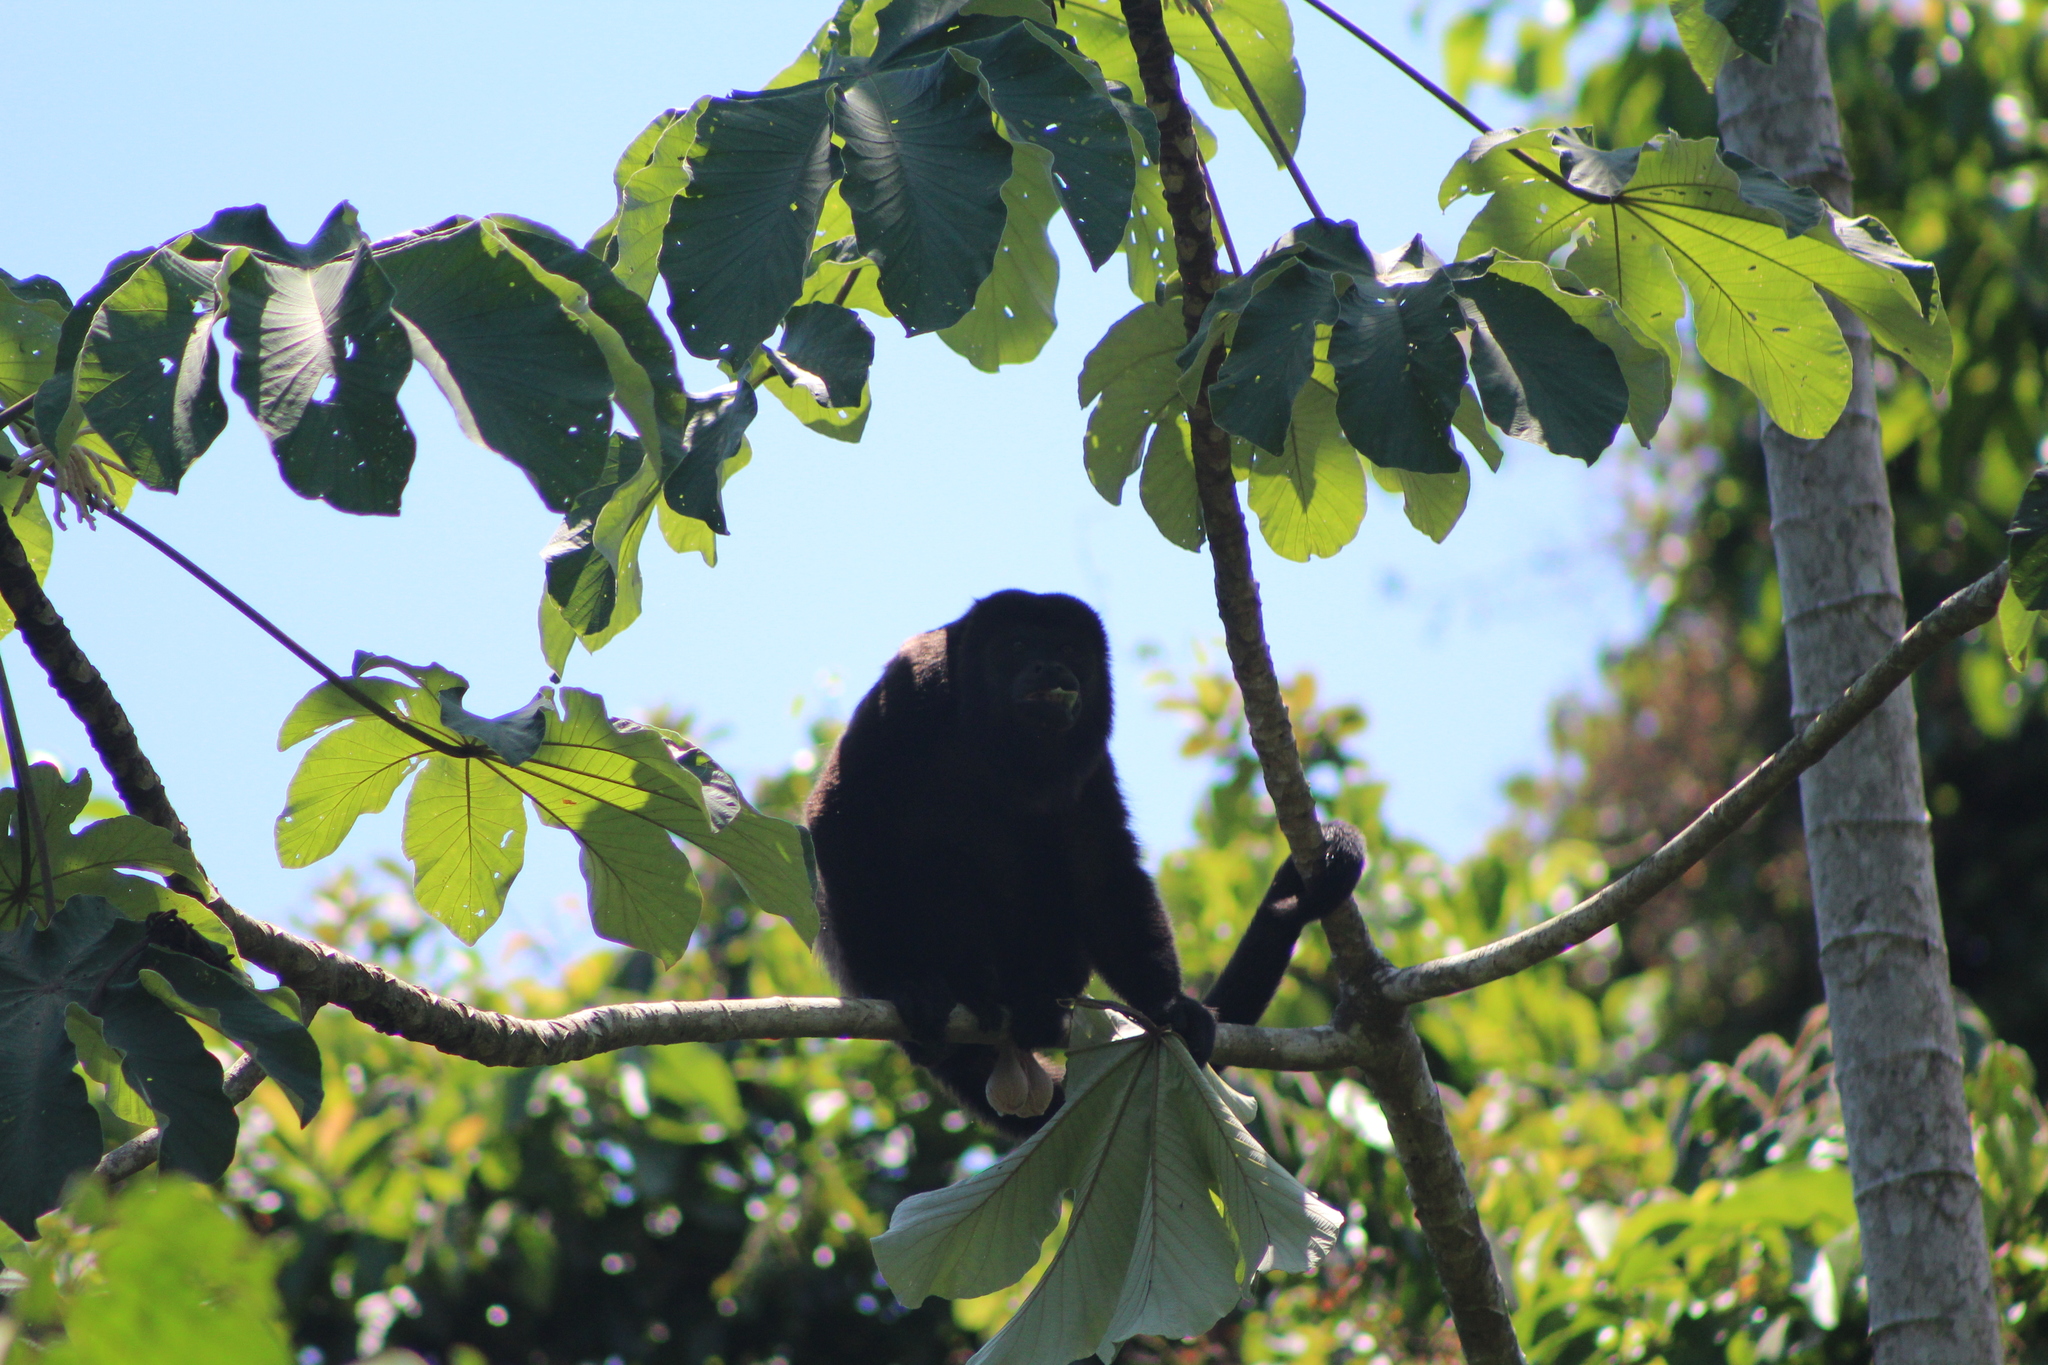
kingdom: Animalia
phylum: Chordata
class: Mammalia
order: Primates
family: Atelidae
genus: Alouatta
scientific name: Alouatta palliata
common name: Mantled howler
